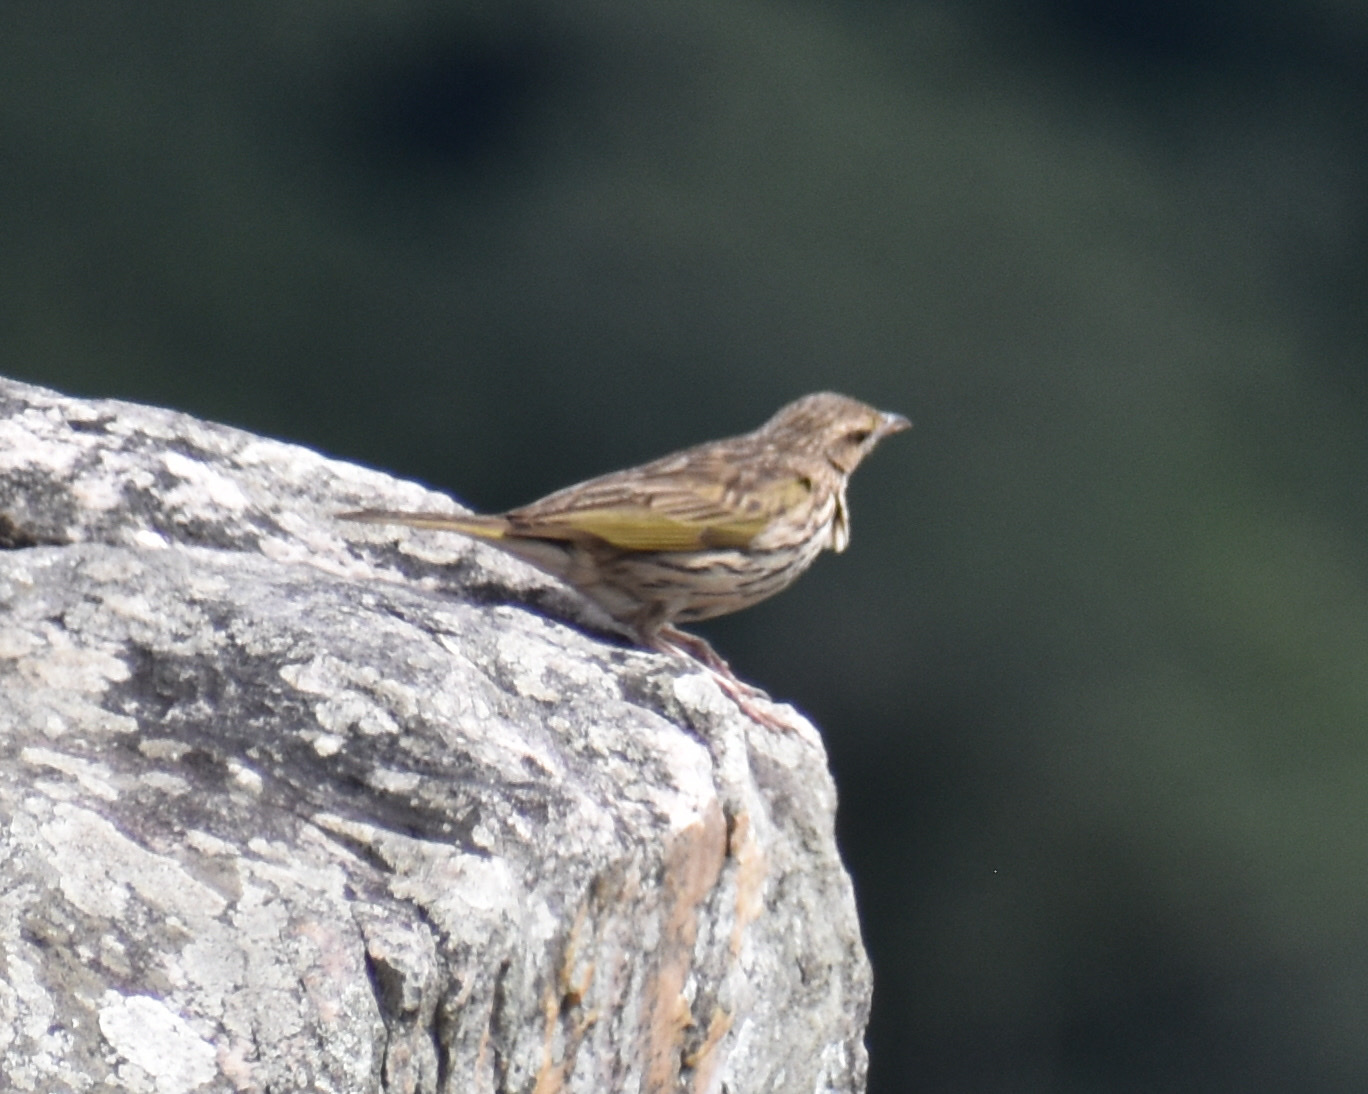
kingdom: Animalia
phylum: Chordata
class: Aves
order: Passeriformes
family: Motacillidae
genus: Anthus
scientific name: Anthus lineiventris
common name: Striped pipit
